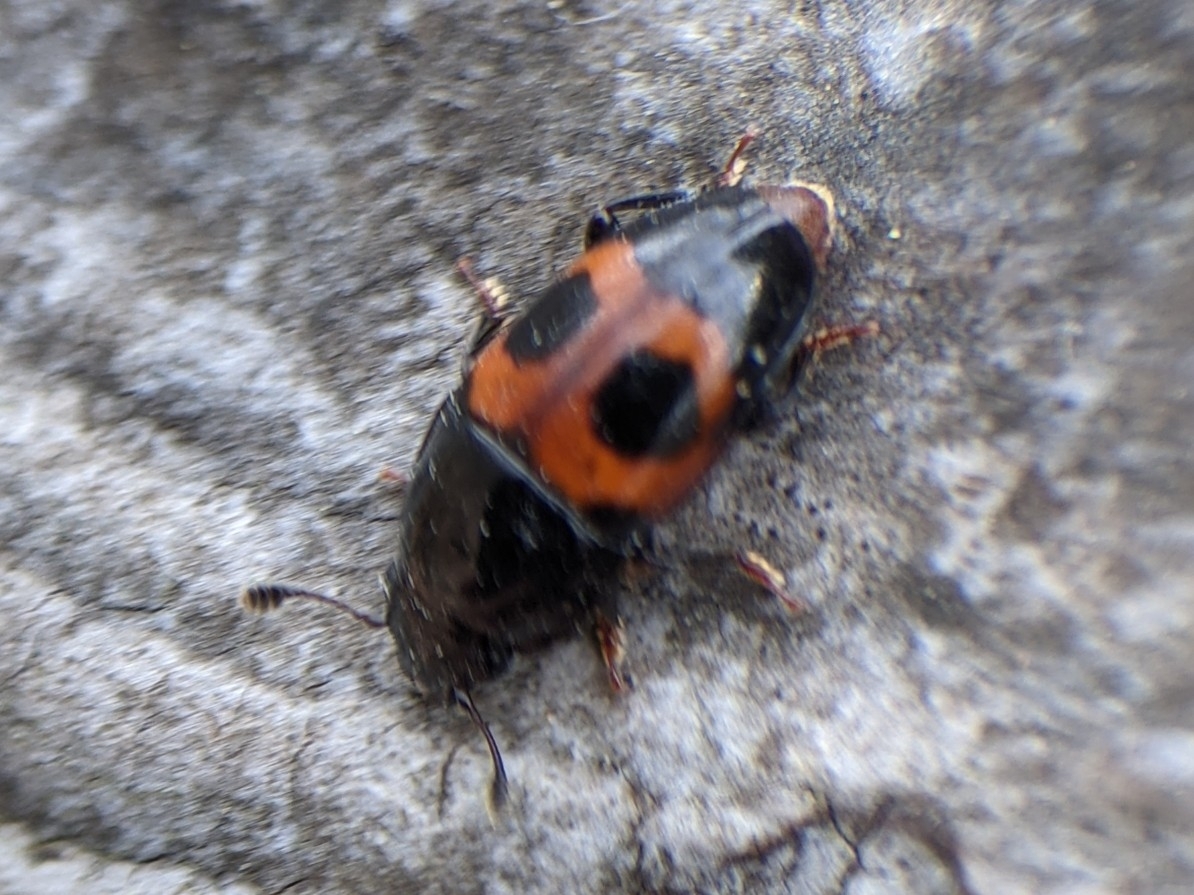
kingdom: Animalia
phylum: Arthropoda
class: Insecta
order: Coleoptera
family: Nitidulidae
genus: Glischrochilus
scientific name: Glischrochilus sanguinolentus
